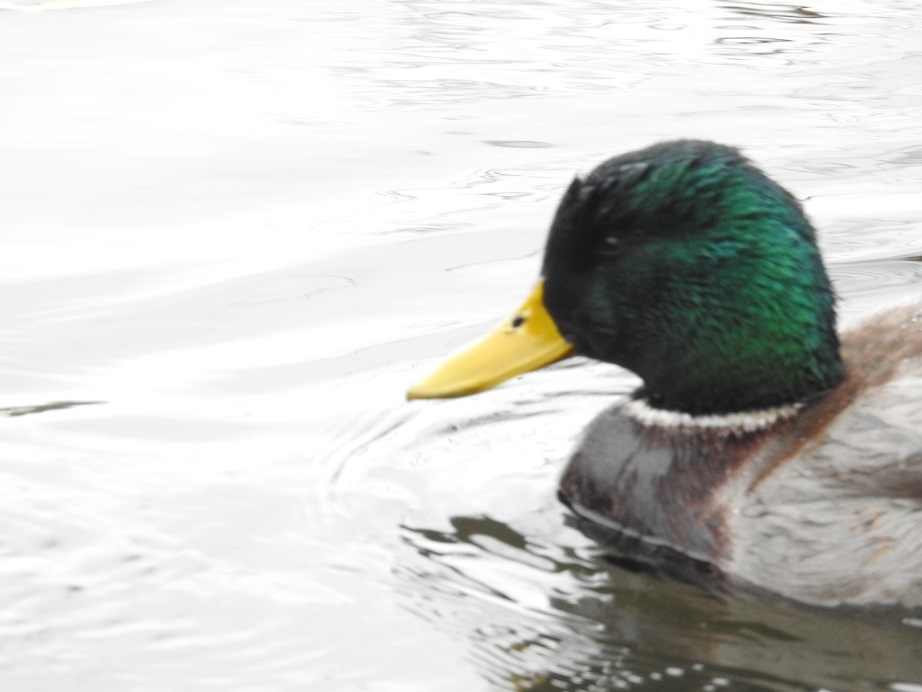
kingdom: Animalia
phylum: Chordata
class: Aves
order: Anseriformes
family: Anatidae
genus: Anas
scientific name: Anas platyrhynchos
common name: Mallard
